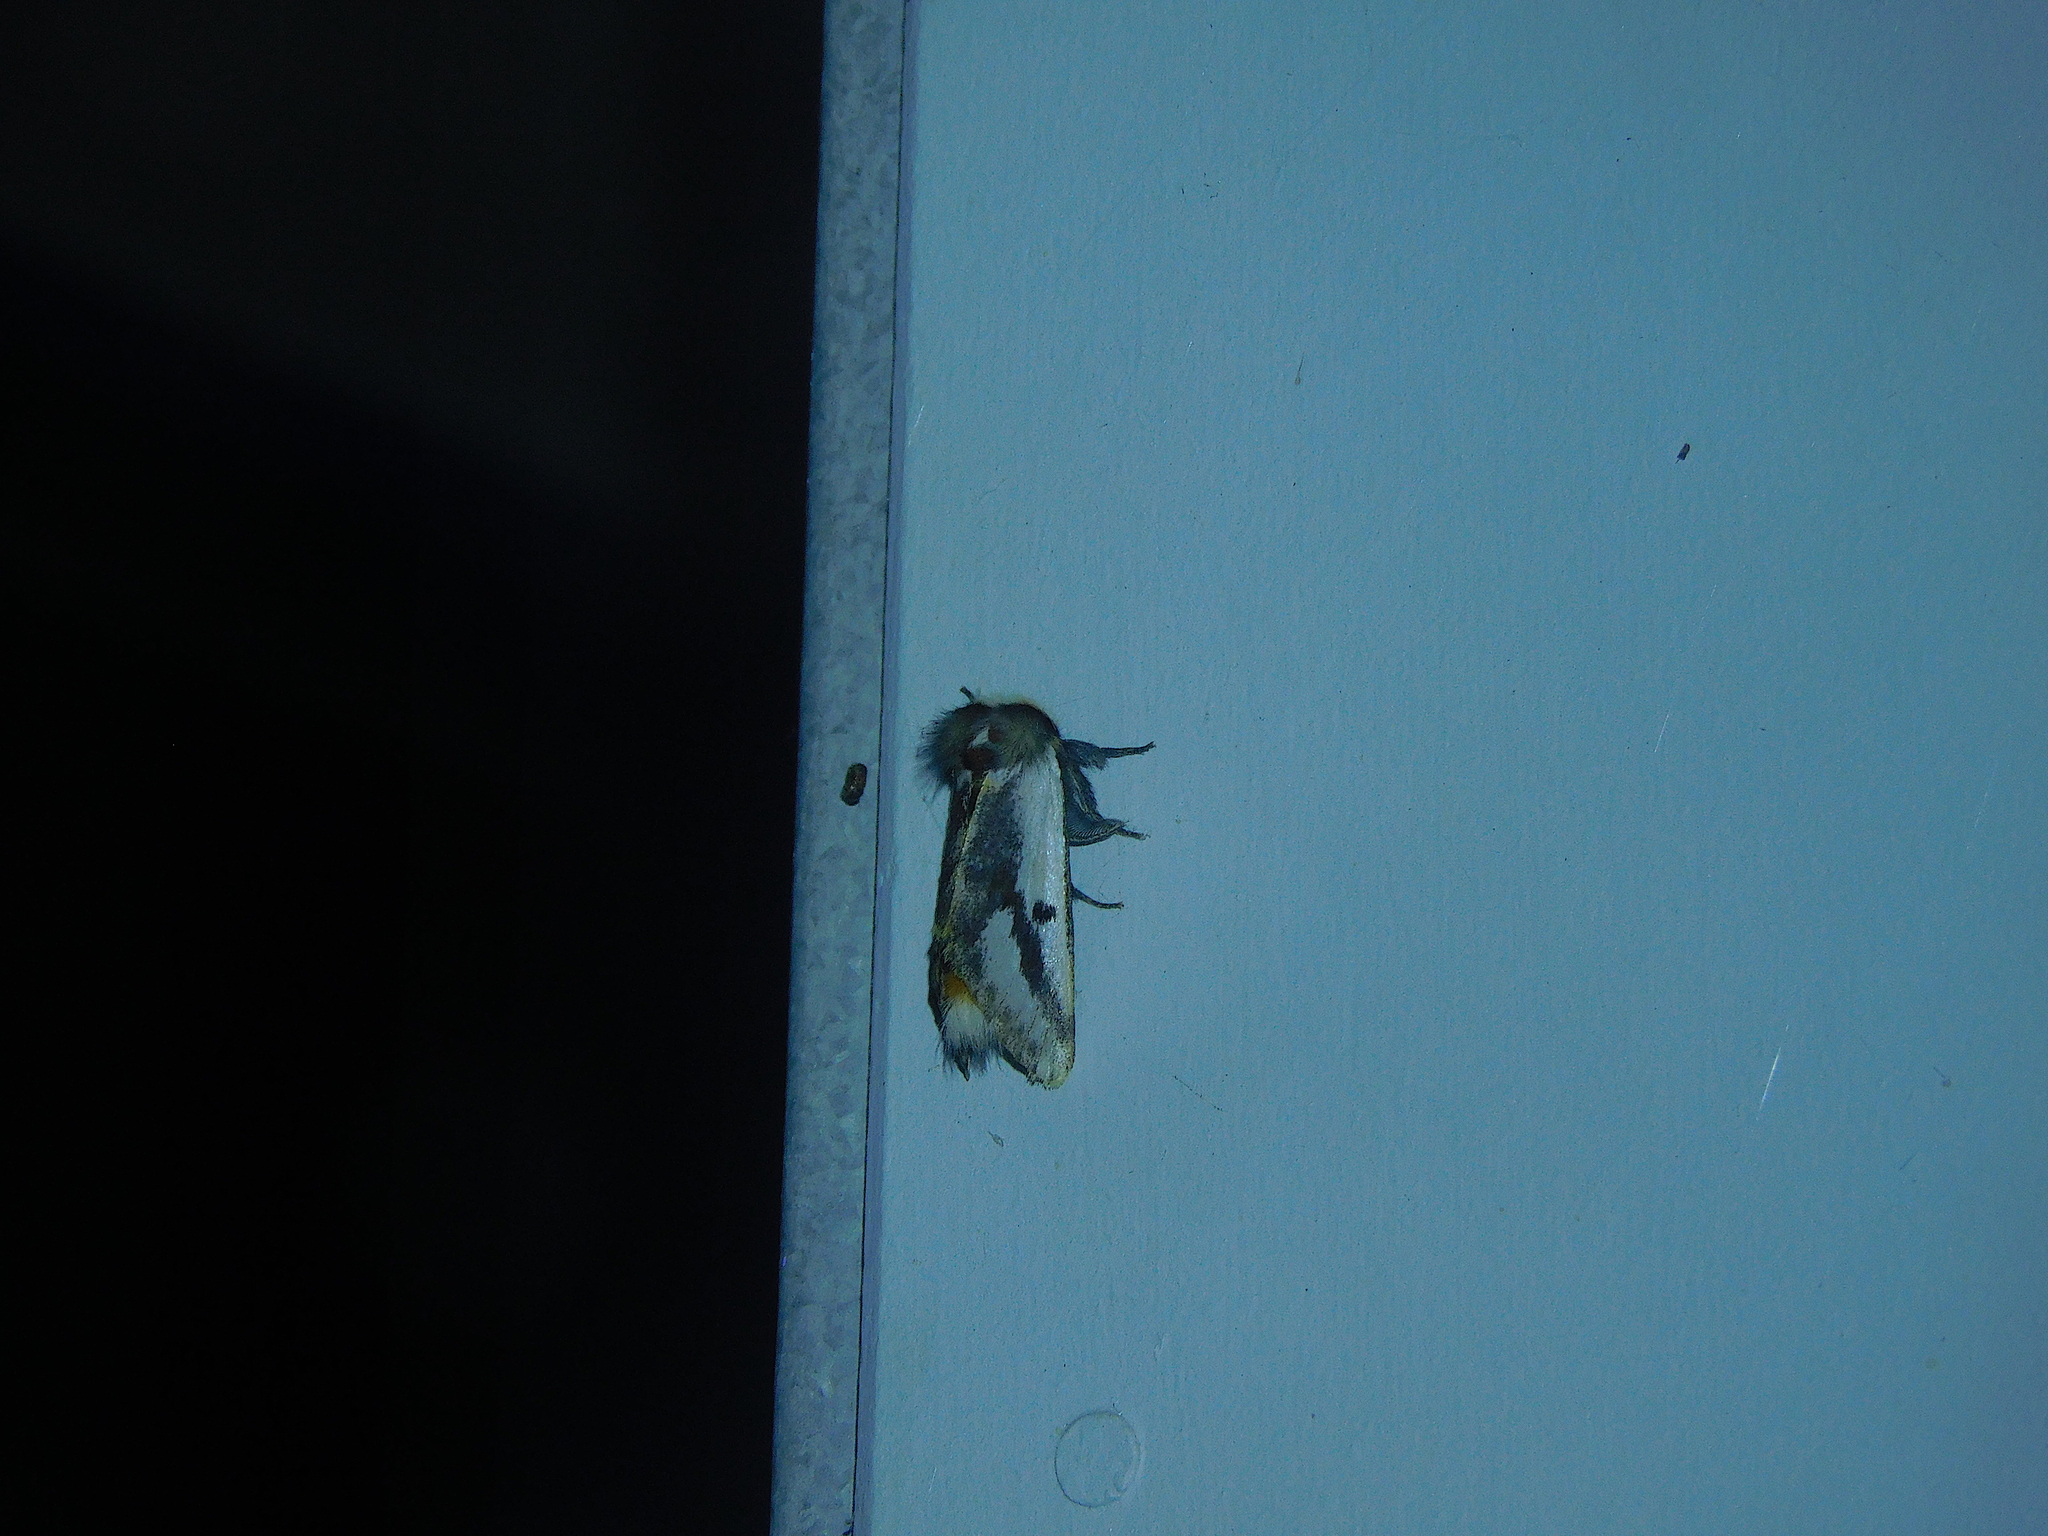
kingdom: Animalia
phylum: Arthropoda
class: Insecta
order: Lepidoptera
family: Notodontidae
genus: Epicoma
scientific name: Epicoma melanospila
